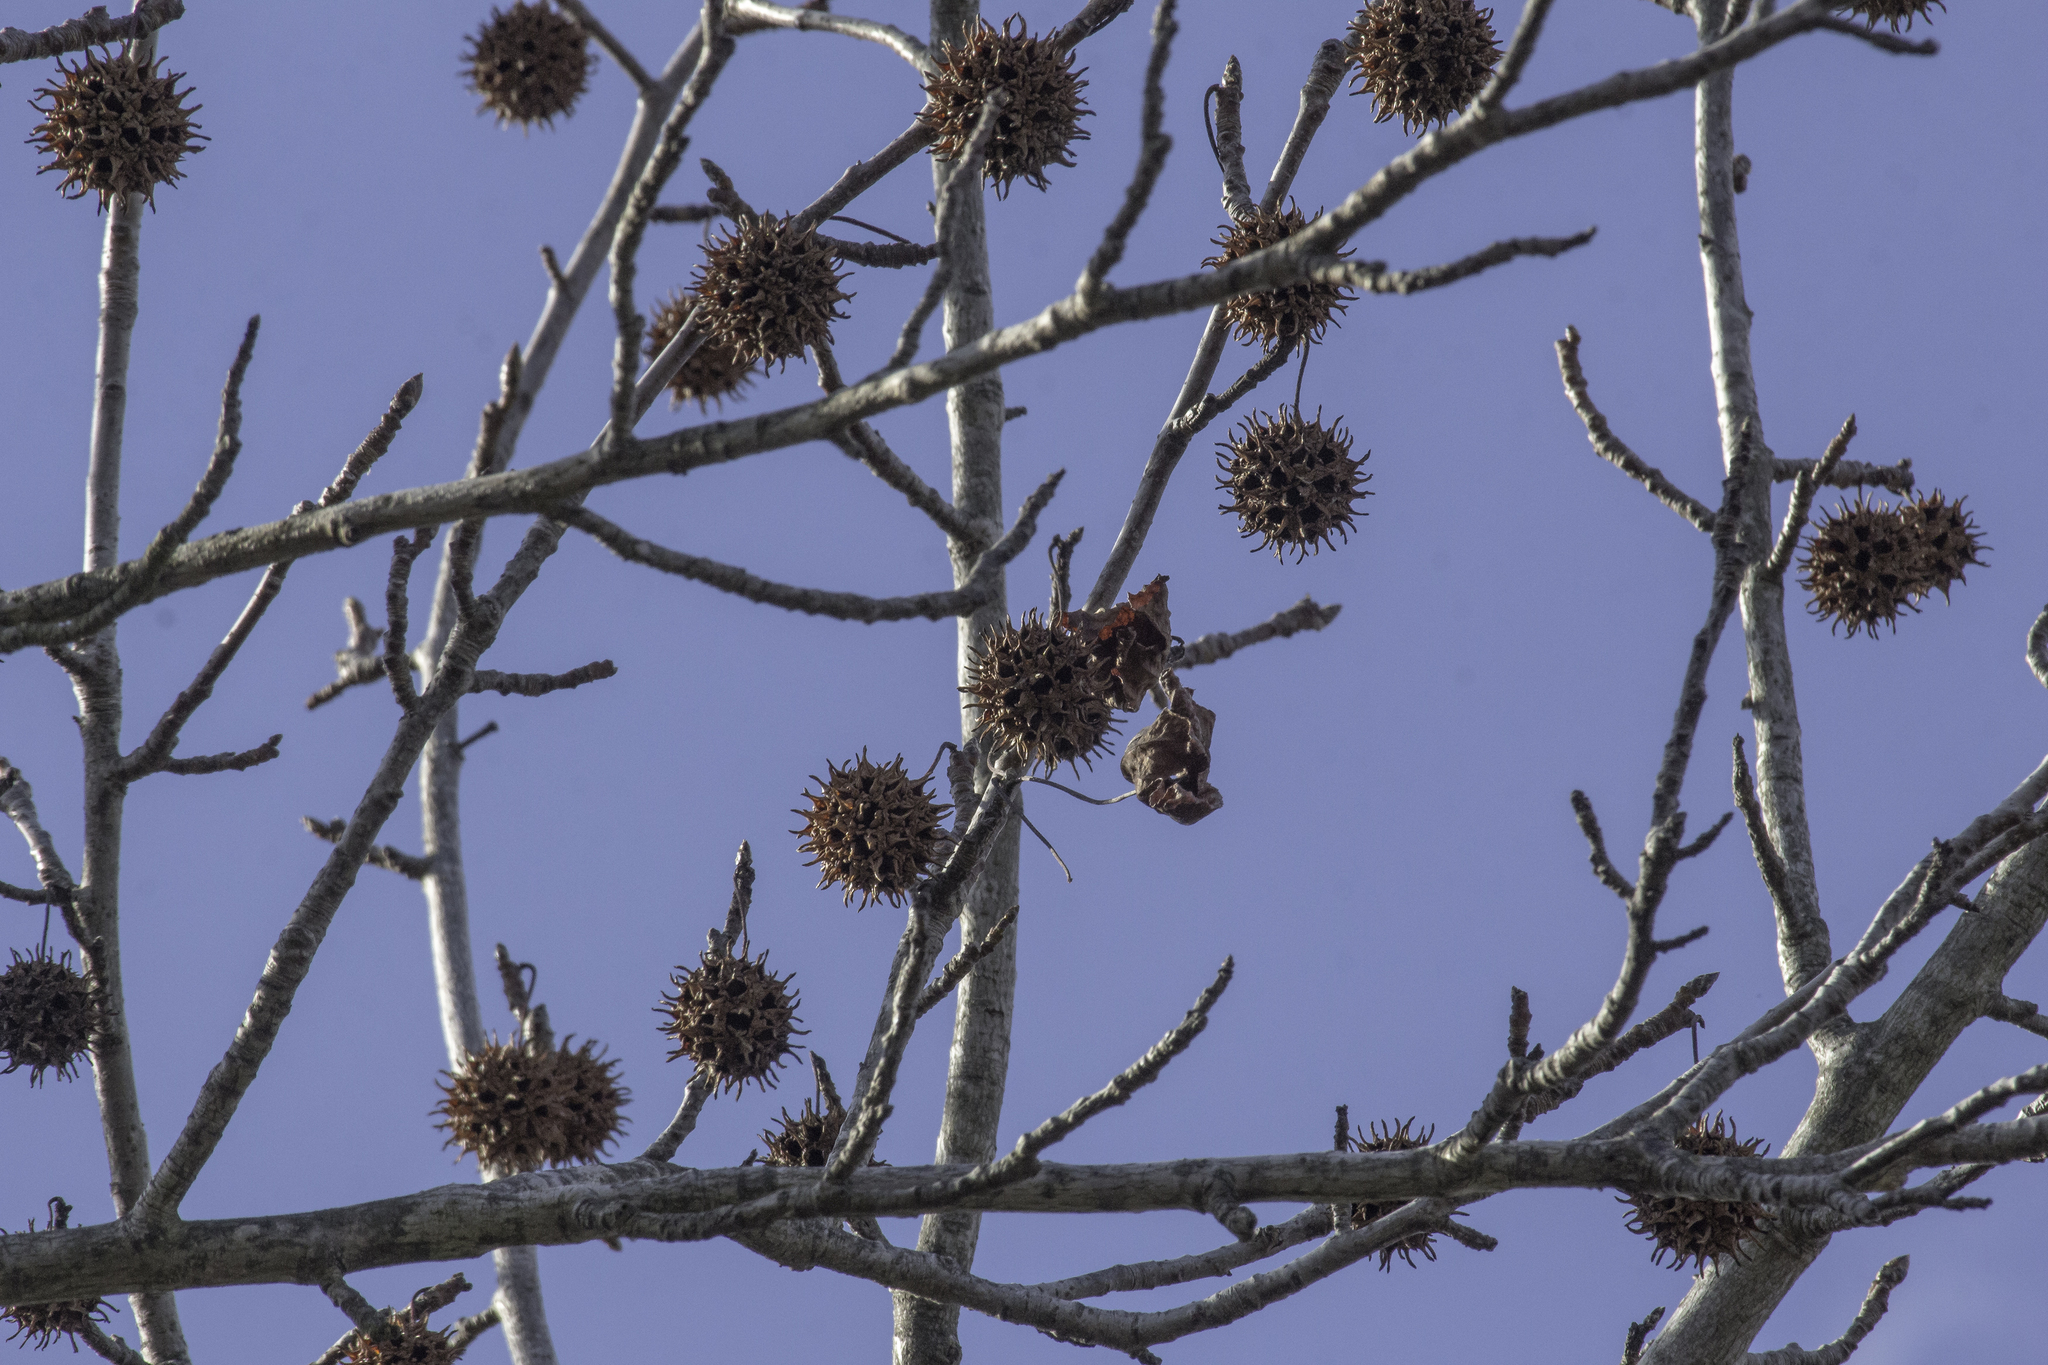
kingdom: Plantae
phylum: Tracheophyta
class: Magnoliopsida
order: Saxifragales
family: Altingiaceae
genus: Liquidambar
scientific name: Liquidambar styraciflua
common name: Sweet gum
